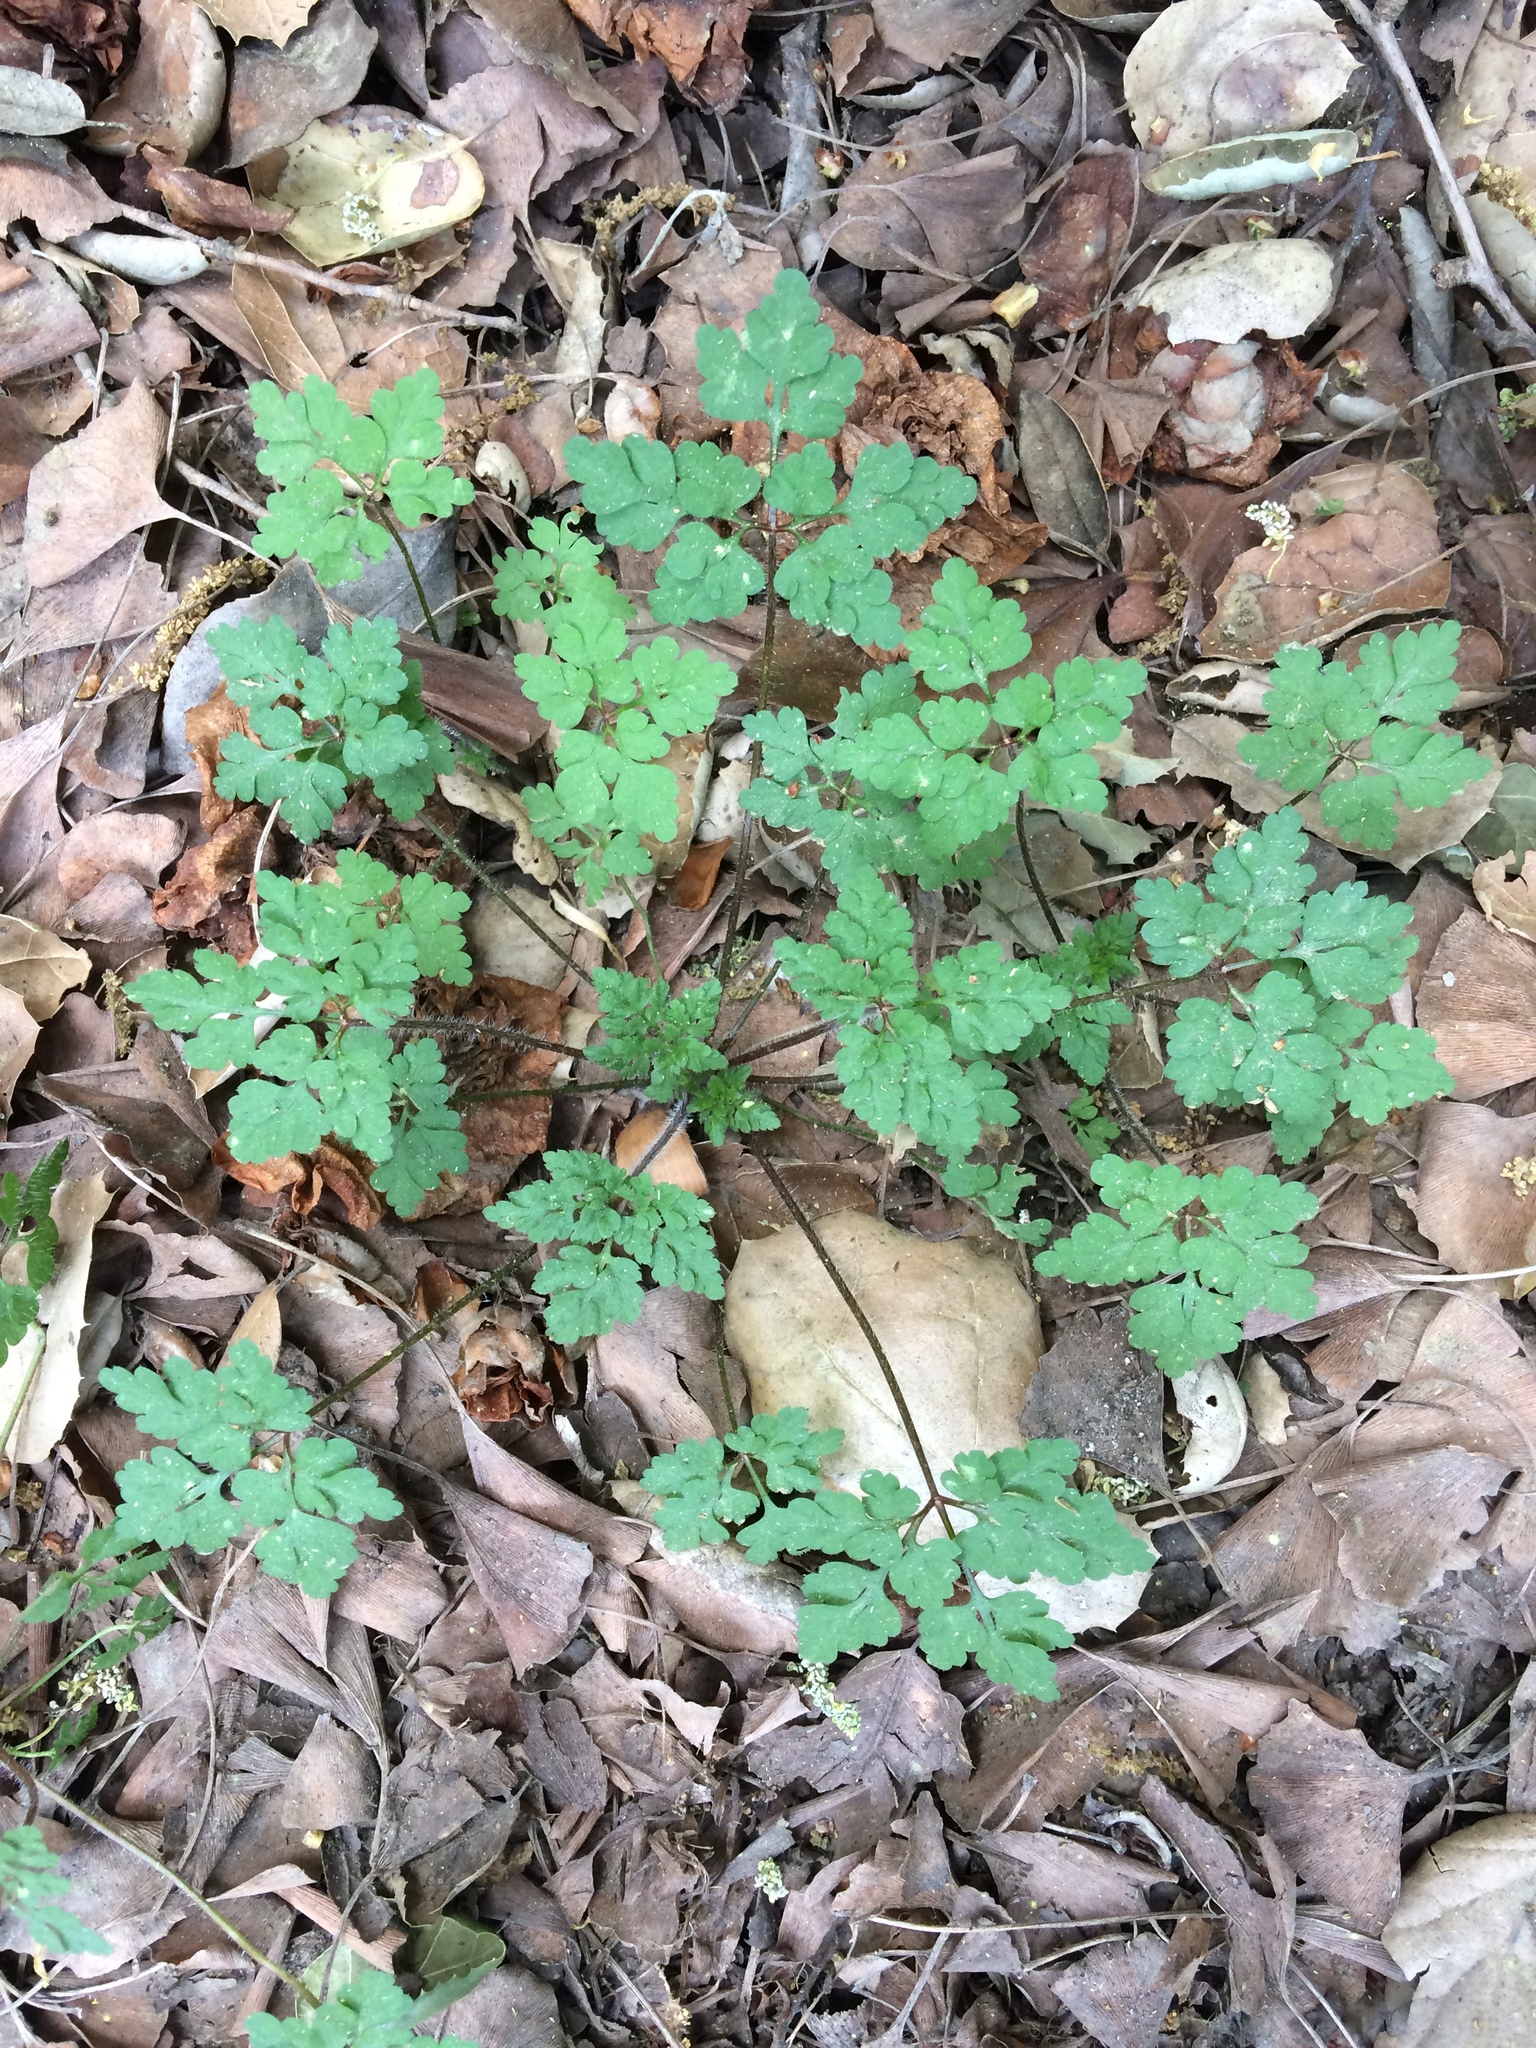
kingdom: Plantae
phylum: Tracheophyta
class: Magnoliopsida
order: Geraniales
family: Geraniaceae
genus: Geranium
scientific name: Geranium robertianum
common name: Herb-robert
